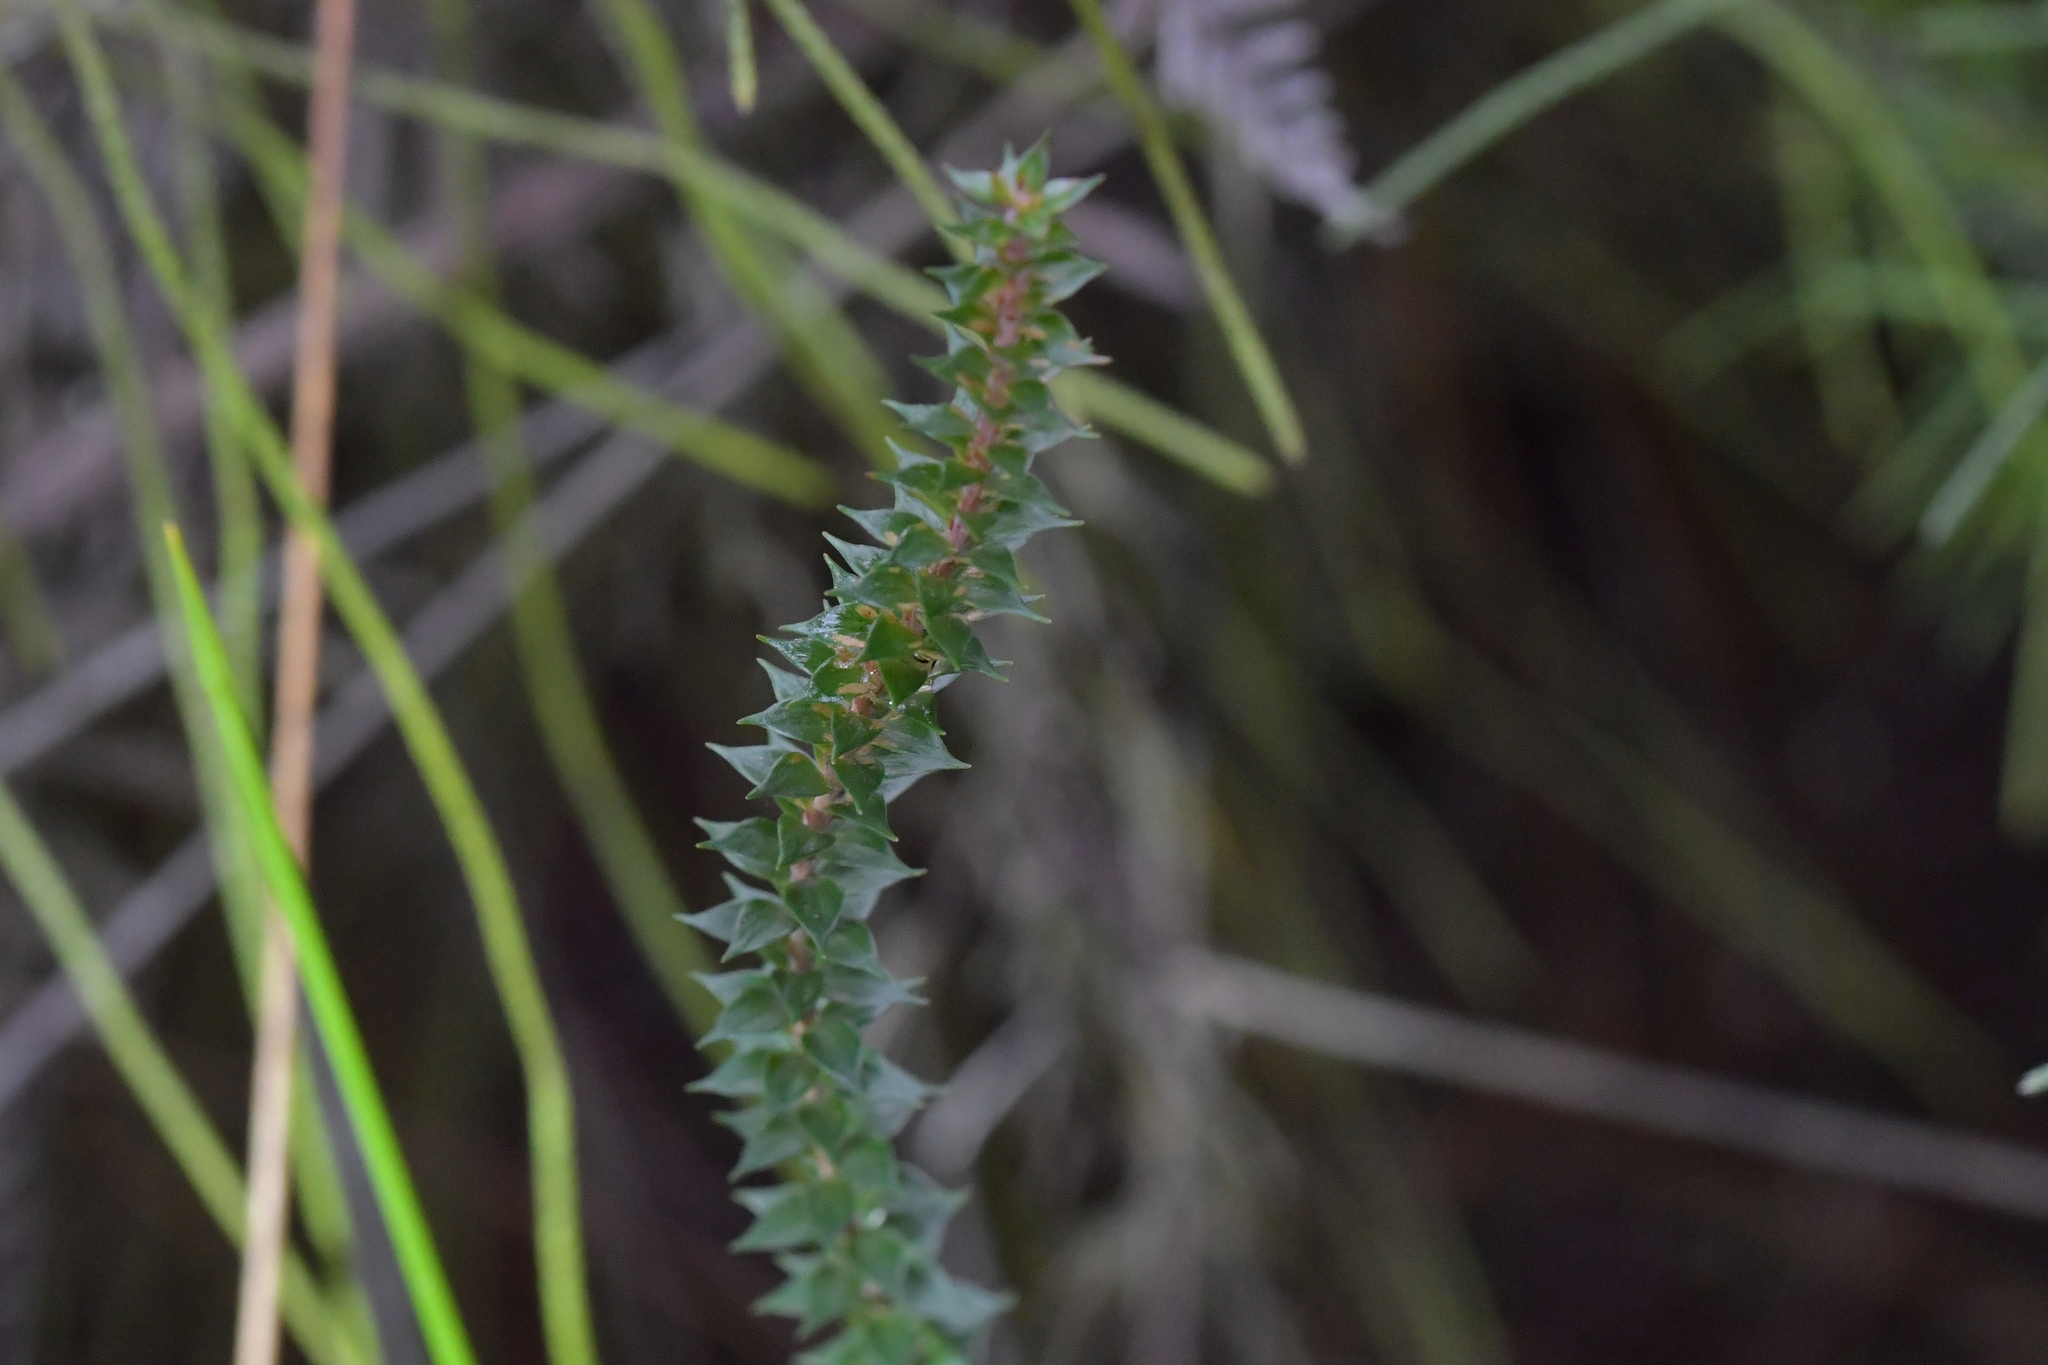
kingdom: Plantae
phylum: Tracheophyta
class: Magnoliopsida
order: Ericales
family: Ericaceae
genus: Epacris
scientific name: Epacris pauciflora
